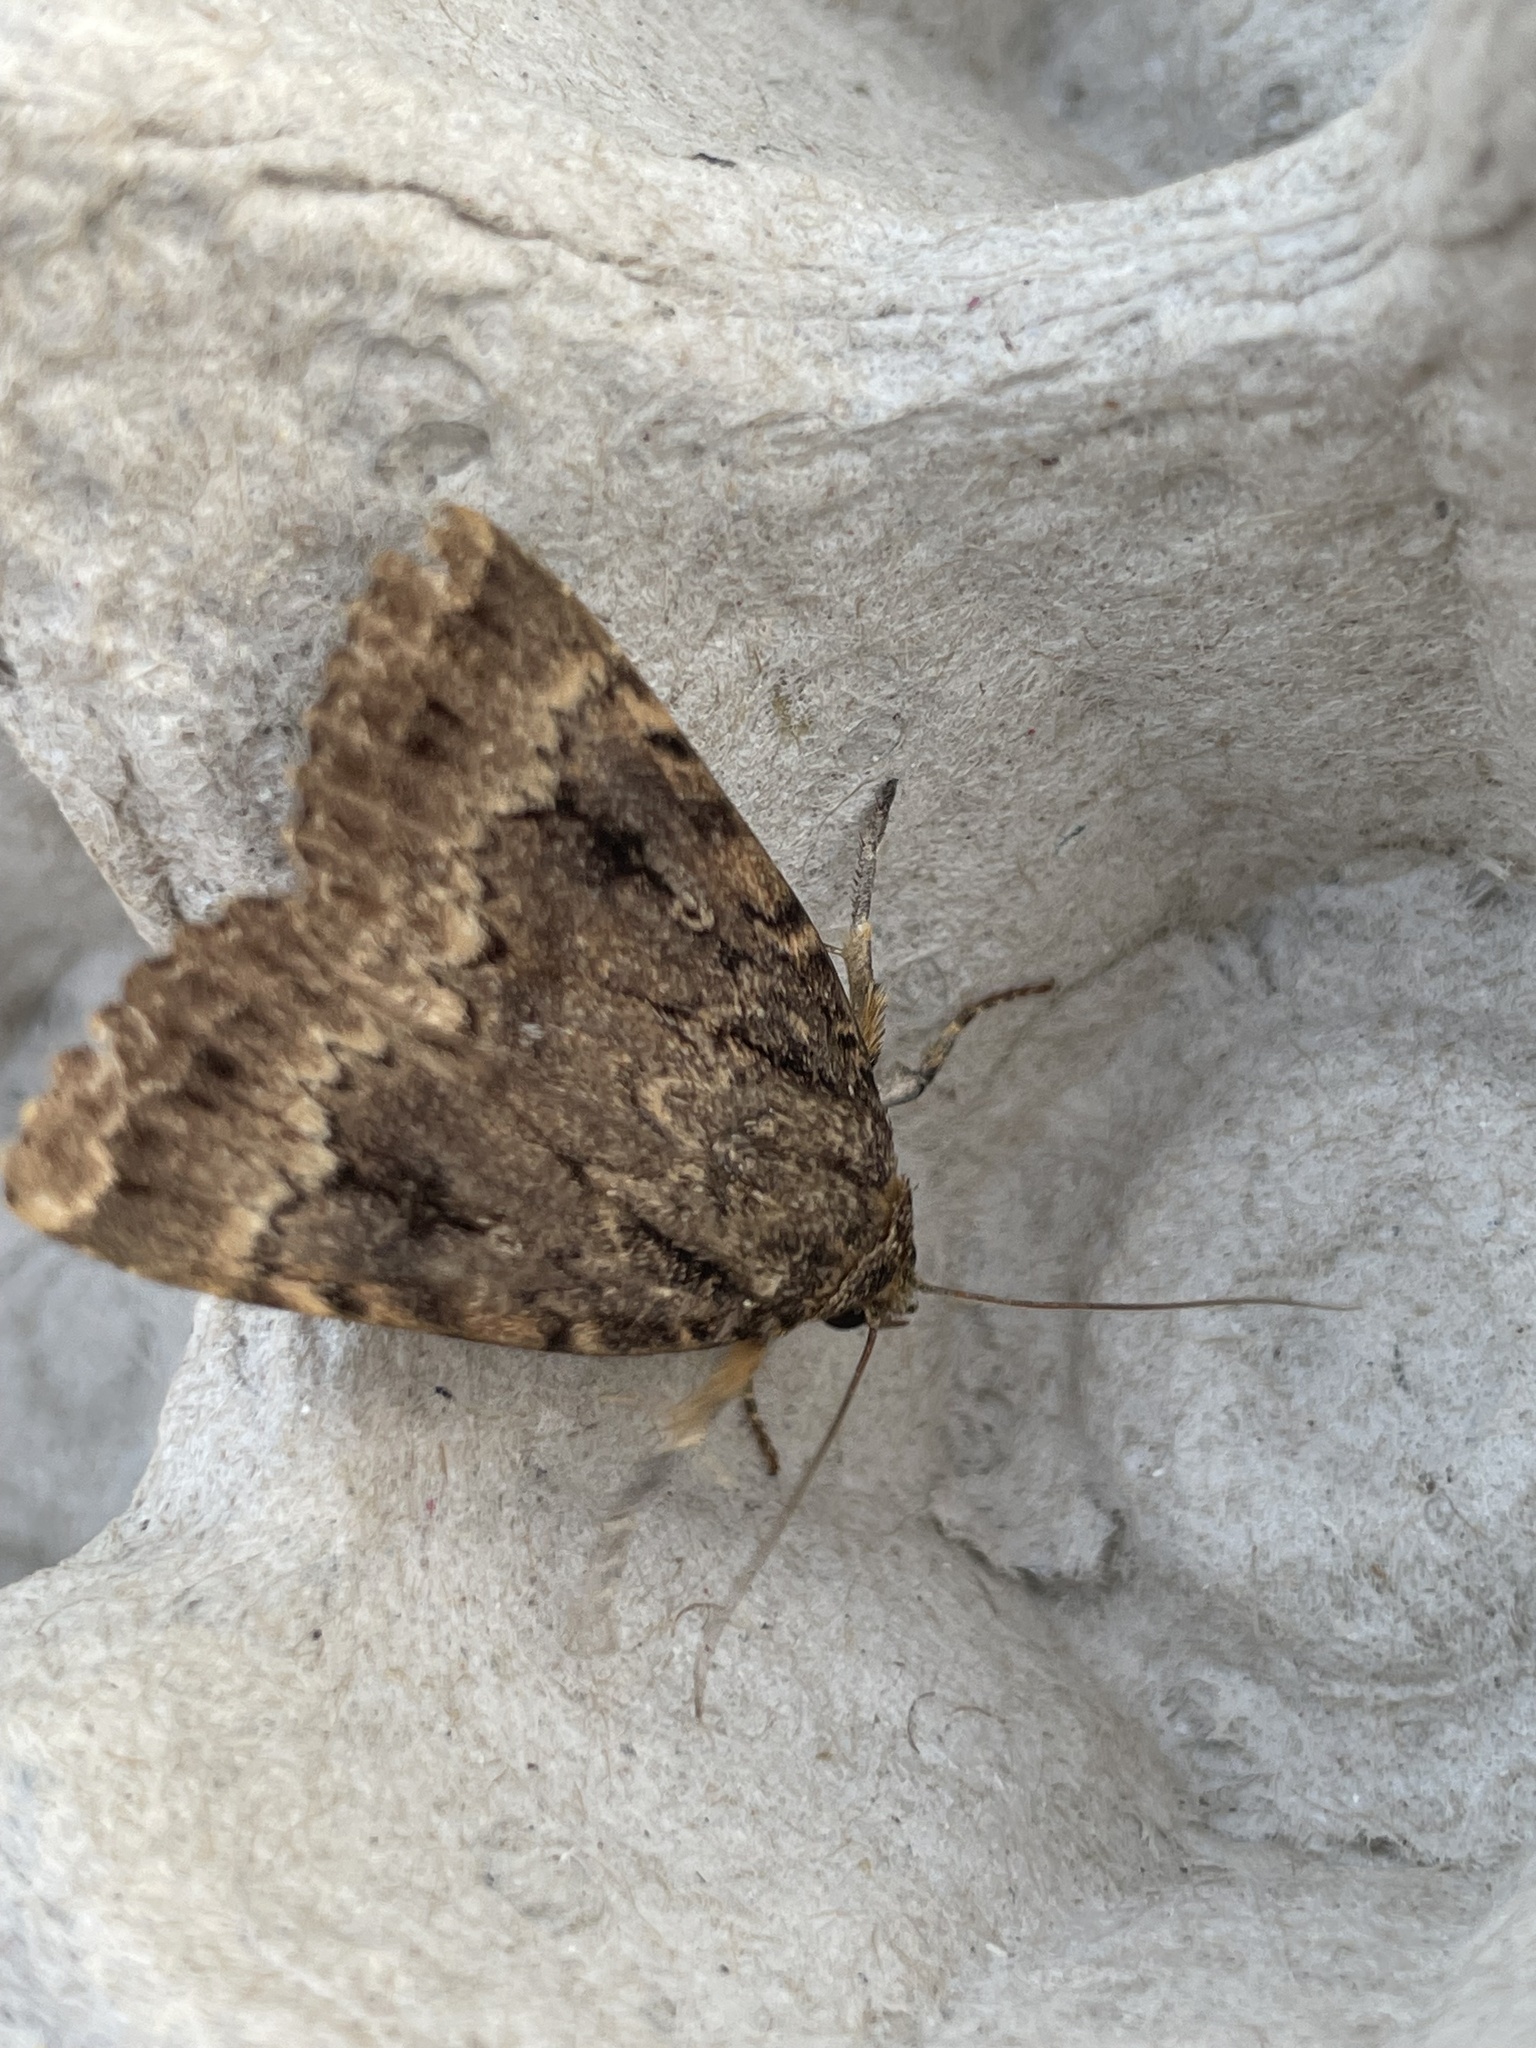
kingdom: Animalia
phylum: Arthropoda
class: Insecta
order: Lepidoptera
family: Noctuidae
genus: Amphipyra
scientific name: Amphipyra
